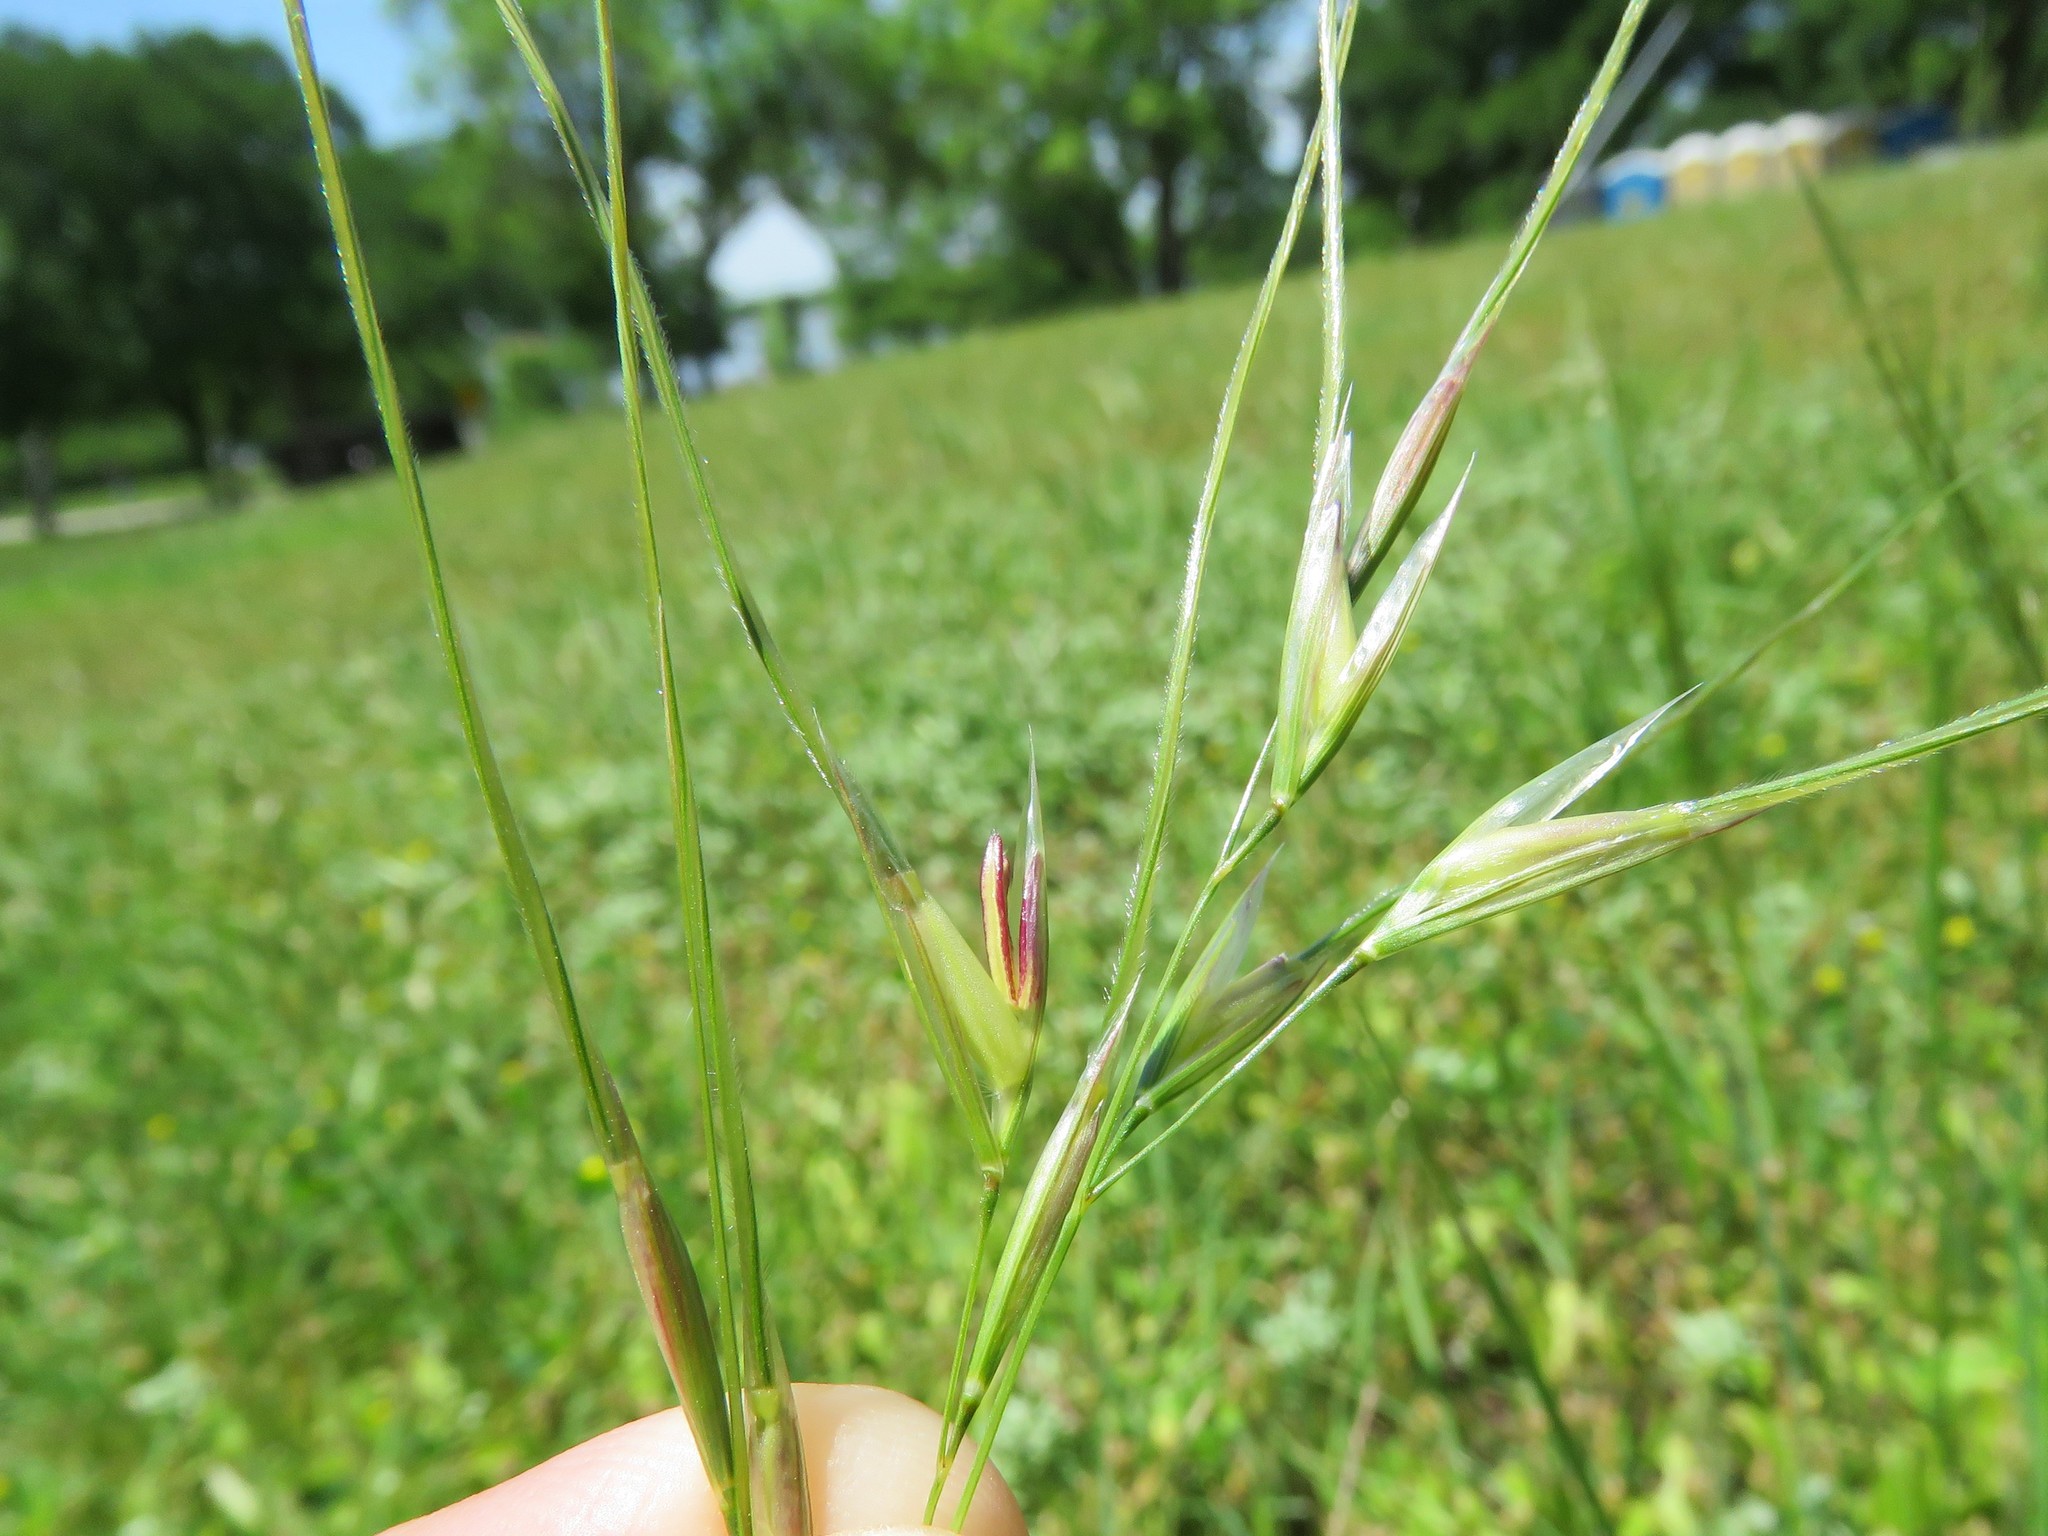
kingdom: Plantae
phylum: Tracheophyta
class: Liliopsida
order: Poales
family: Poaceae
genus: Nassella
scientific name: Nassella leucotricha
